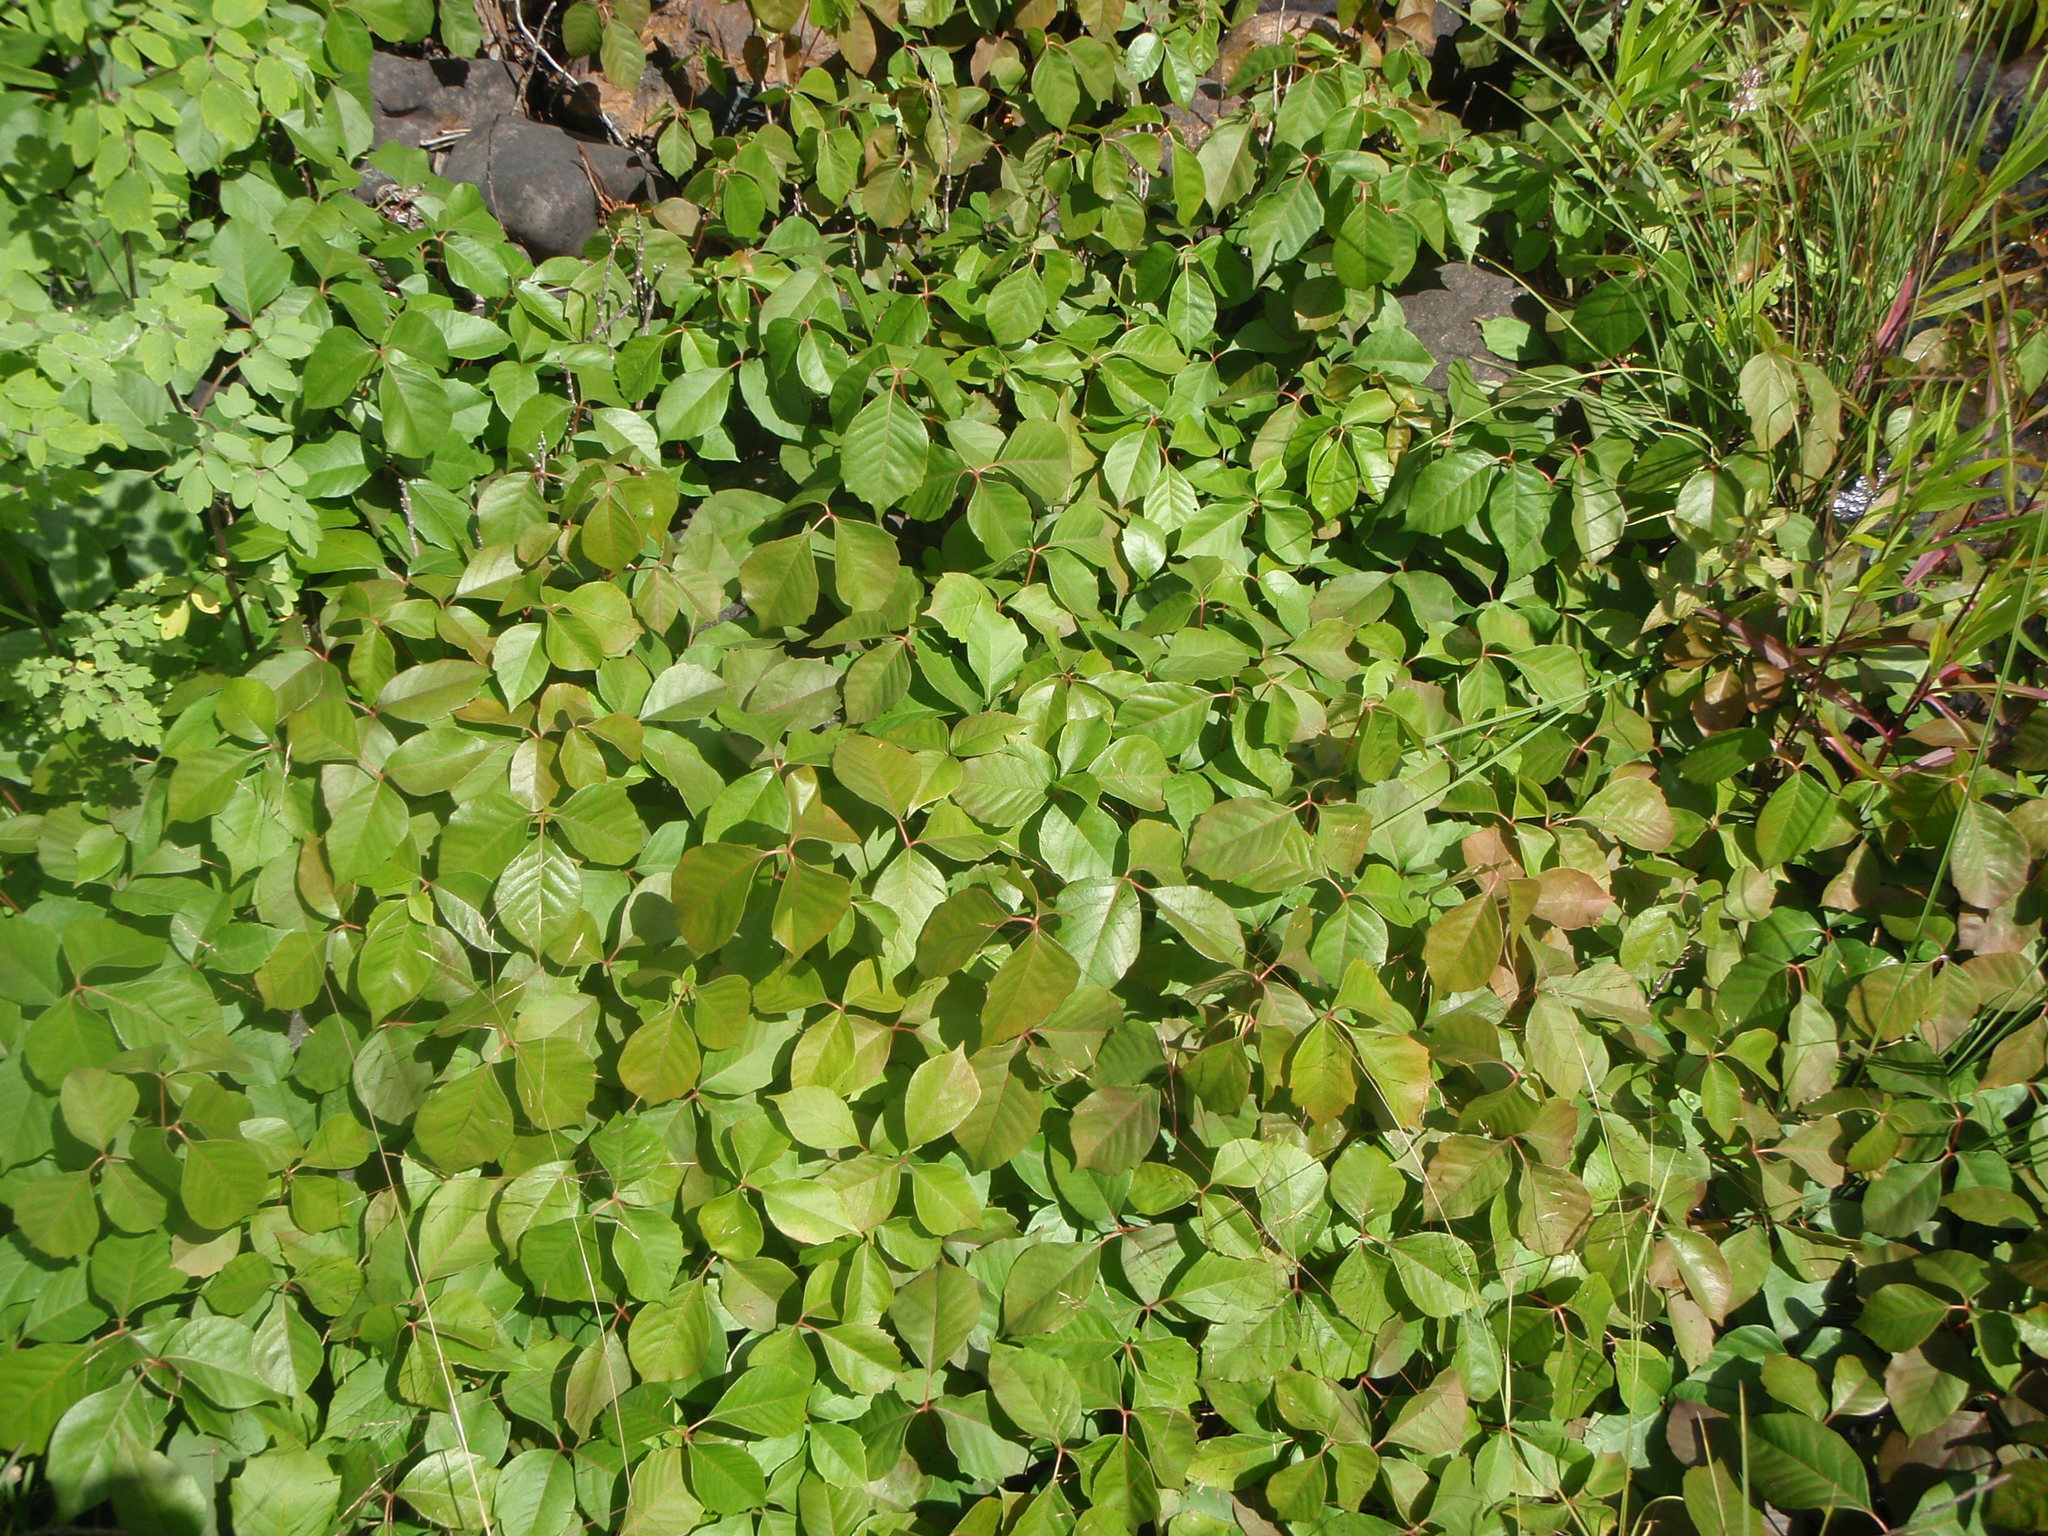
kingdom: Plantae
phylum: Tracheophyta
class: Magnoliopsida
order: Sapindales
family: Anacardiaceae
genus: Toxicodendron
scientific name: Toxicodendron rydbergii
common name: Rydberg's poison-ivy
